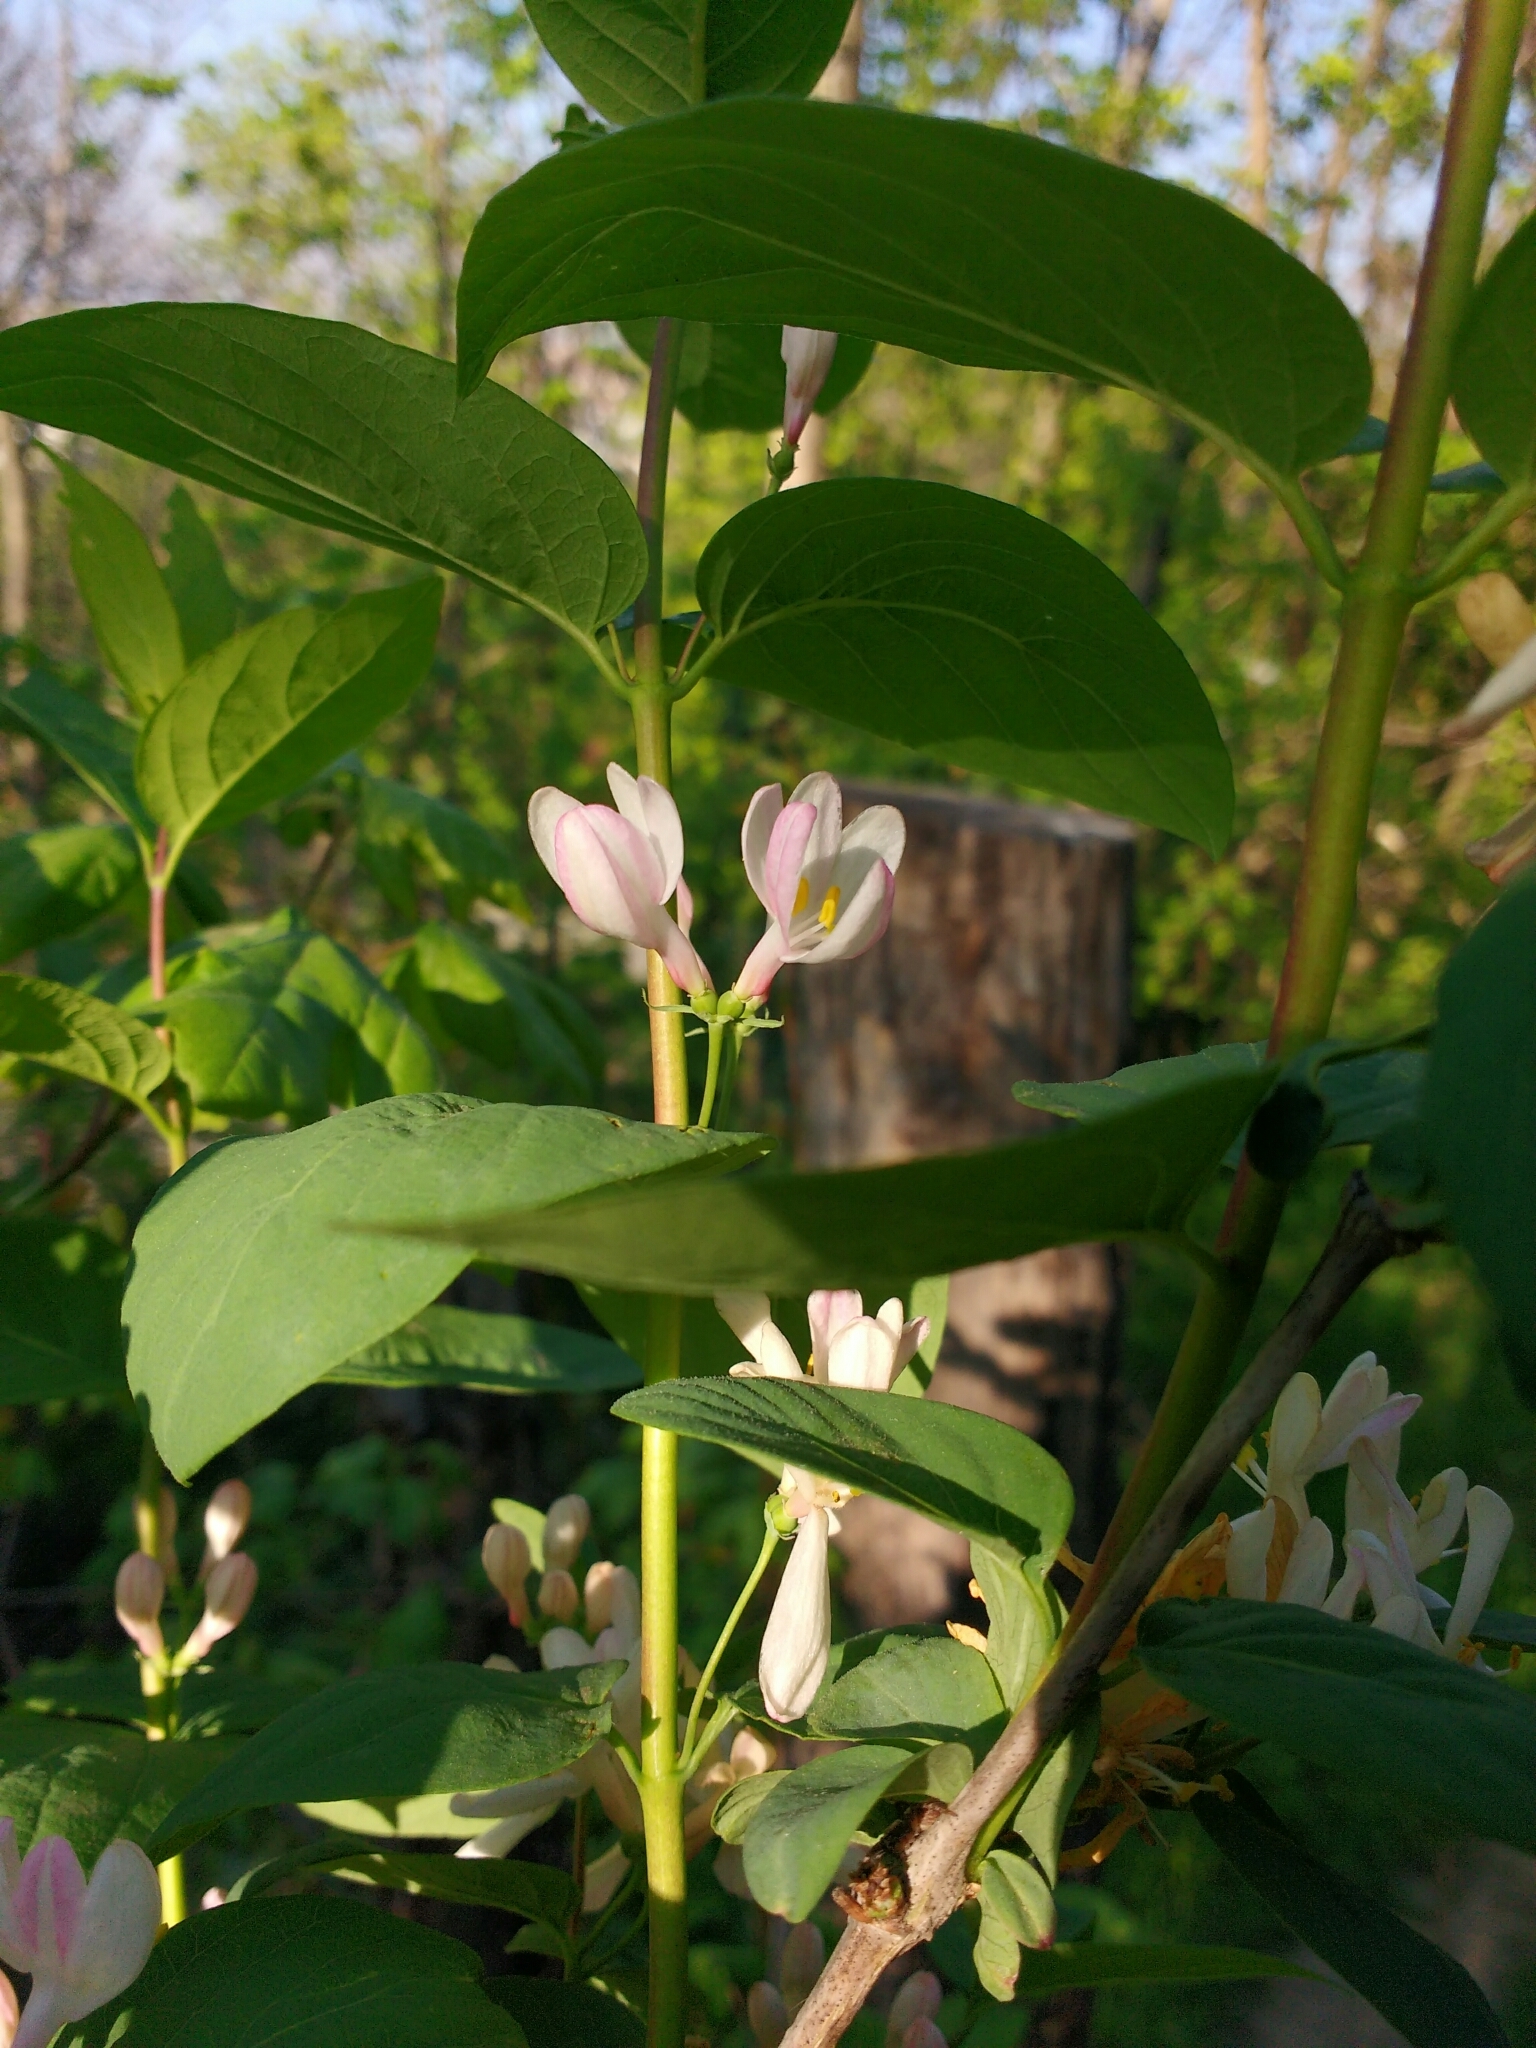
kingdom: Plantae
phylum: Tracheophyta
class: Magnoliopsida
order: Dipsacales
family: Caprifoliaceae
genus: Lonicera
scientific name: Lonicera tatarica
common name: Tatarian honeysuckle
